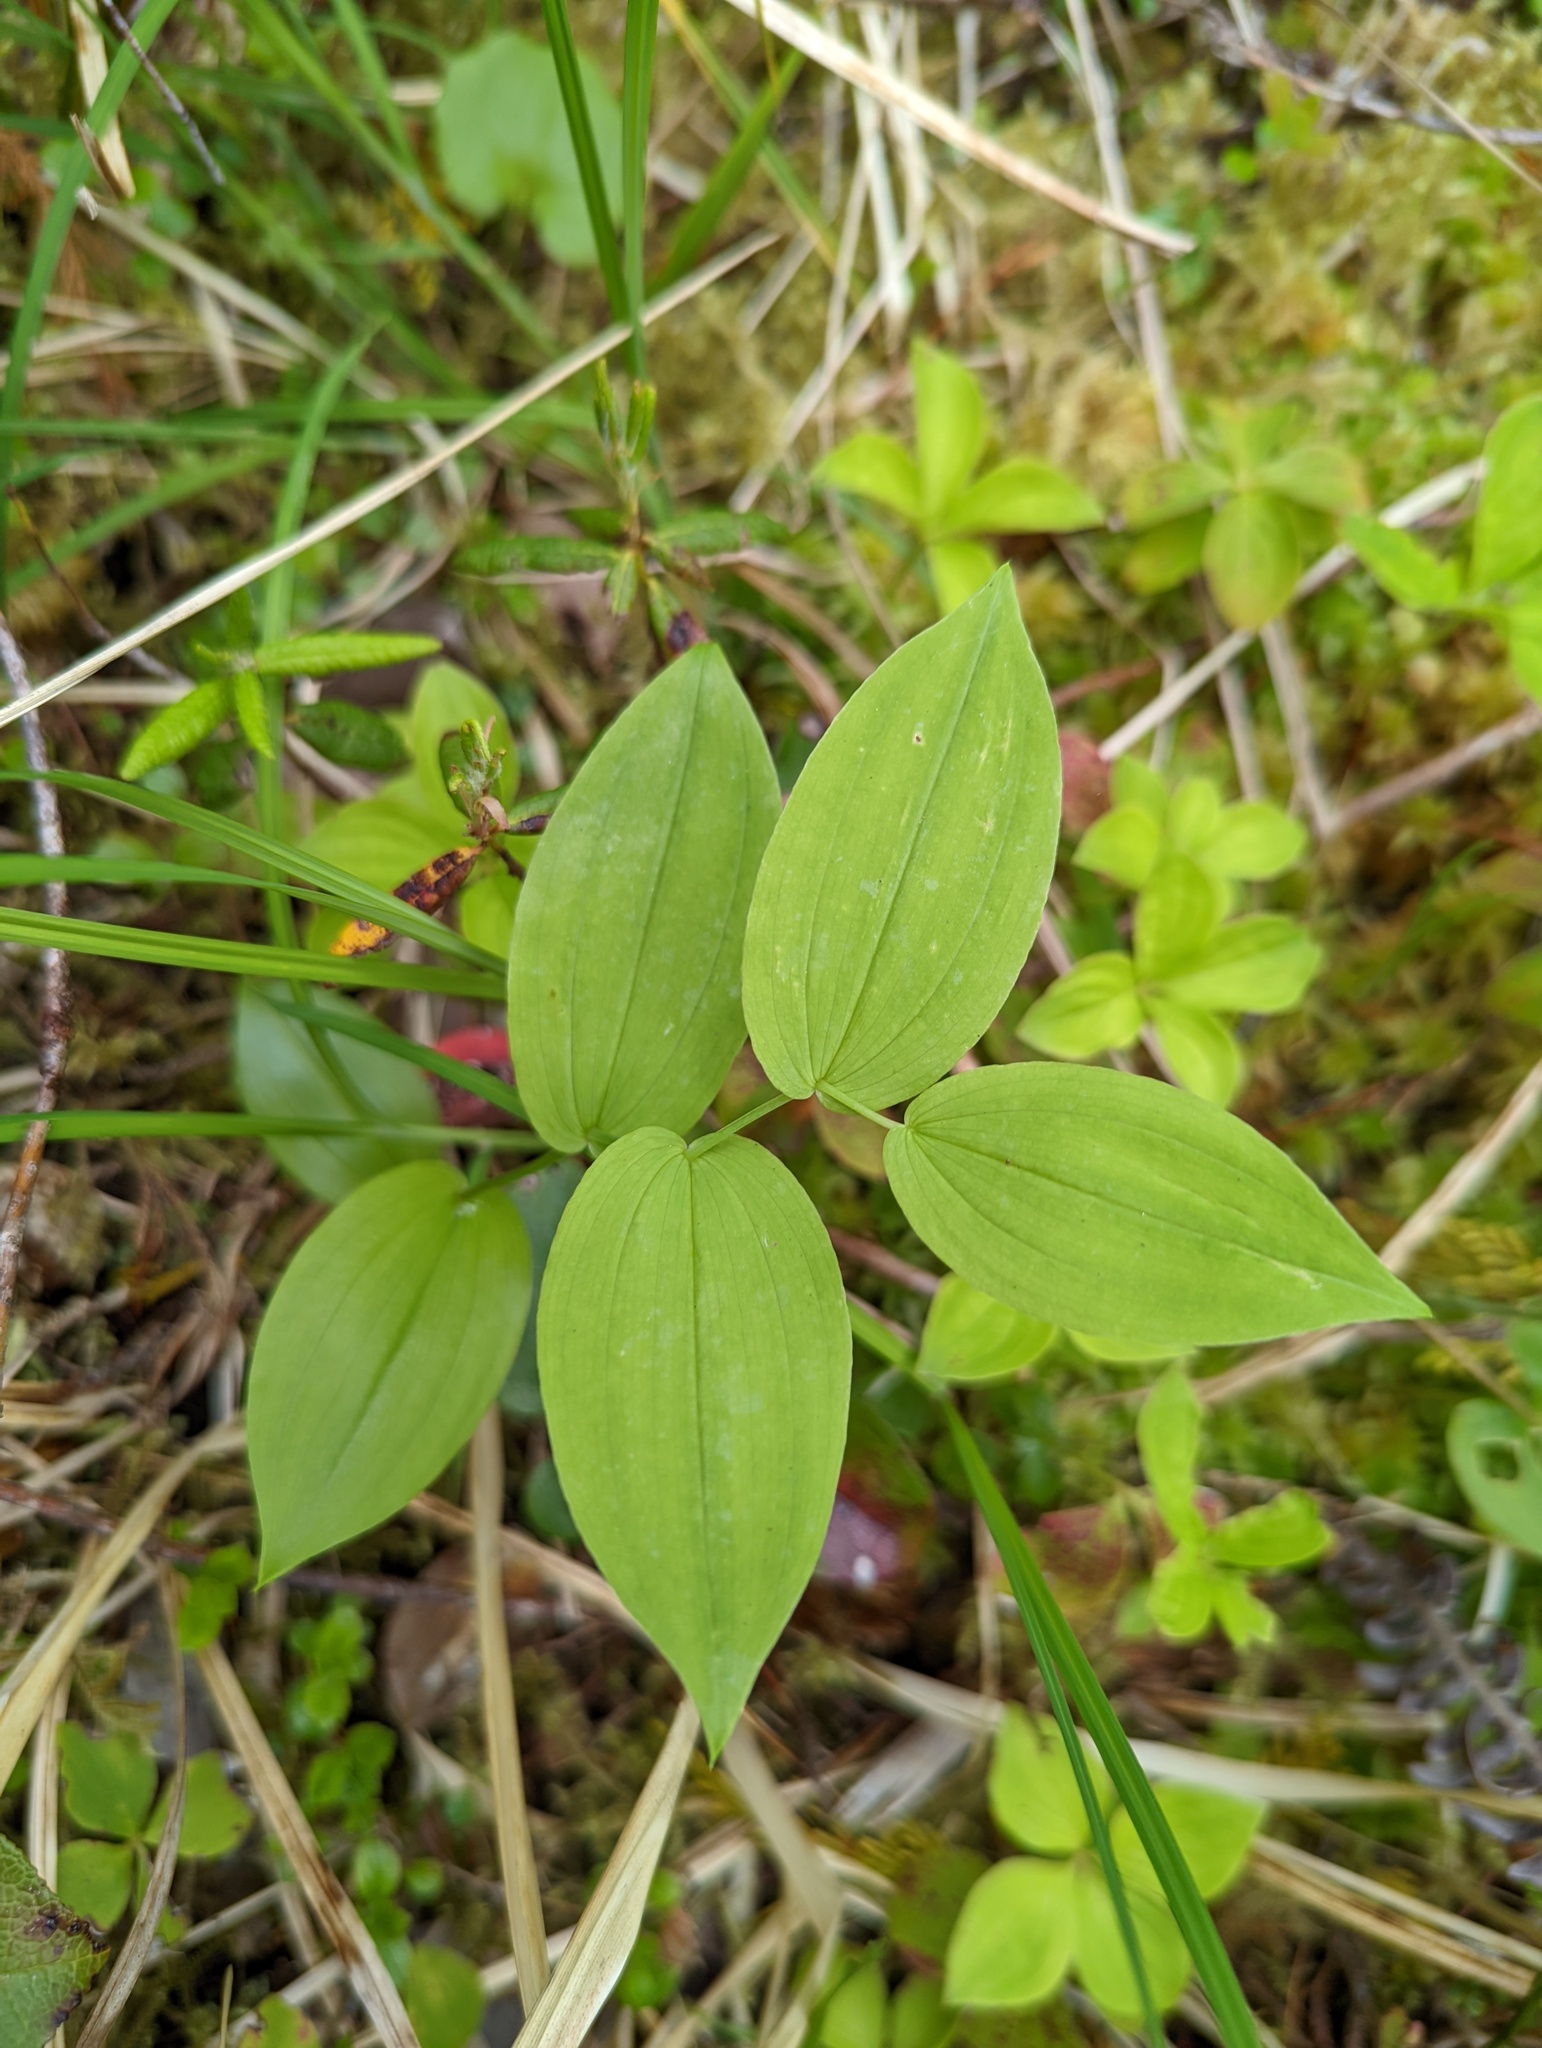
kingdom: Plantae
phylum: Tracheophyta
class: Liliopsida
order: Liliales
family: Liliaceae
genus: Streptopus
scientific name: Streptopus amplexifolius
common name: Clasp twisted stalk
